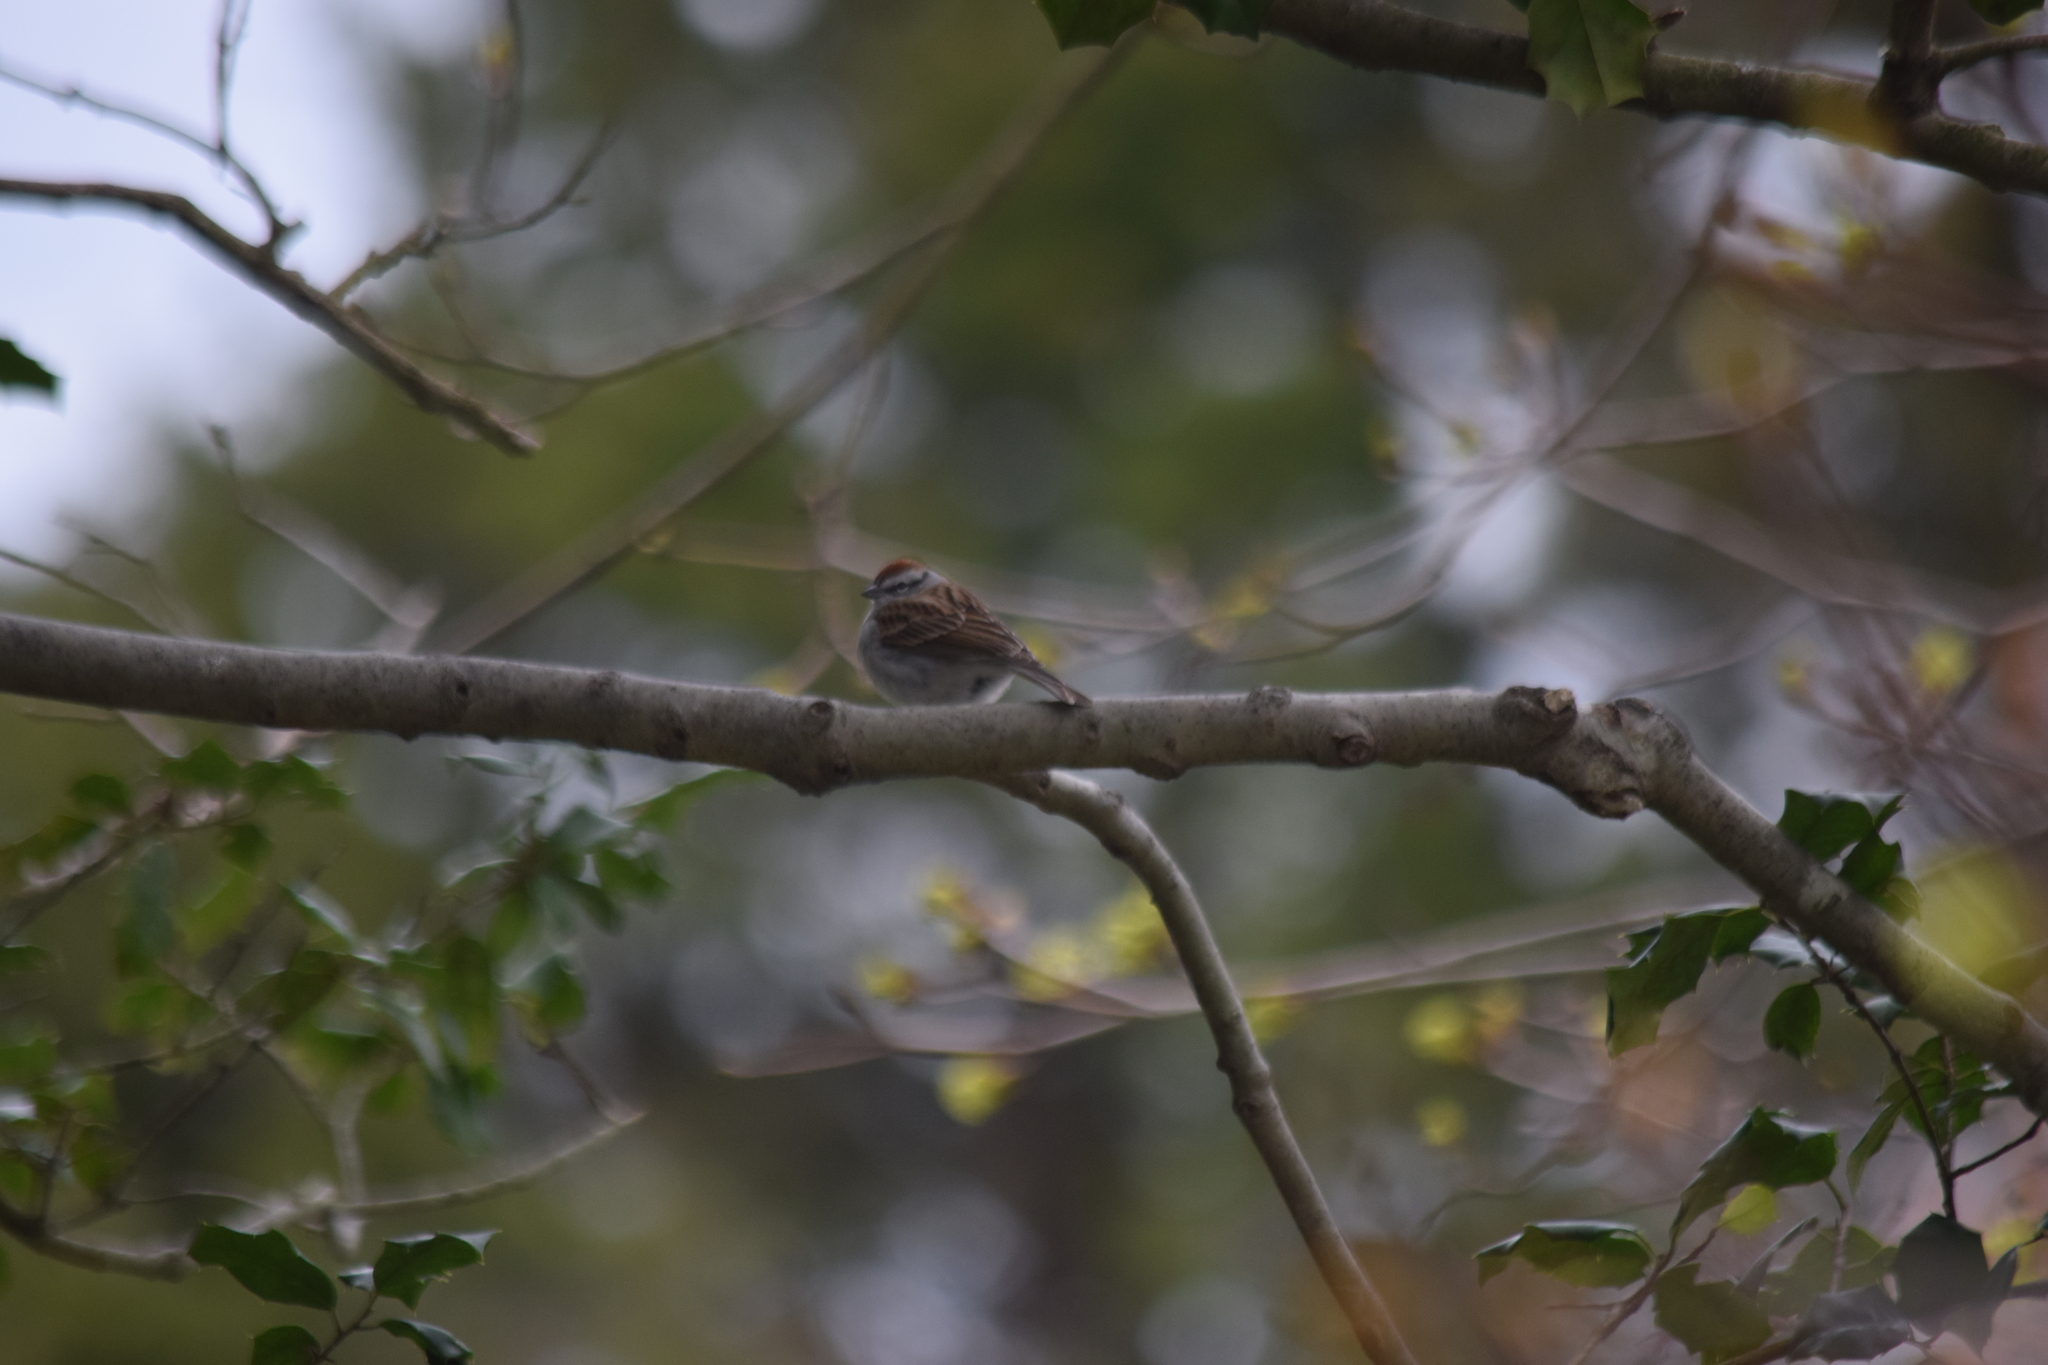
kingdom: Animalia
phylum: Chordata
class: Aves
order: Passeriformes
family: Passerellidae
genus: Spizella
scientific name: Spizella passerina
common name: Chipping sparrow
